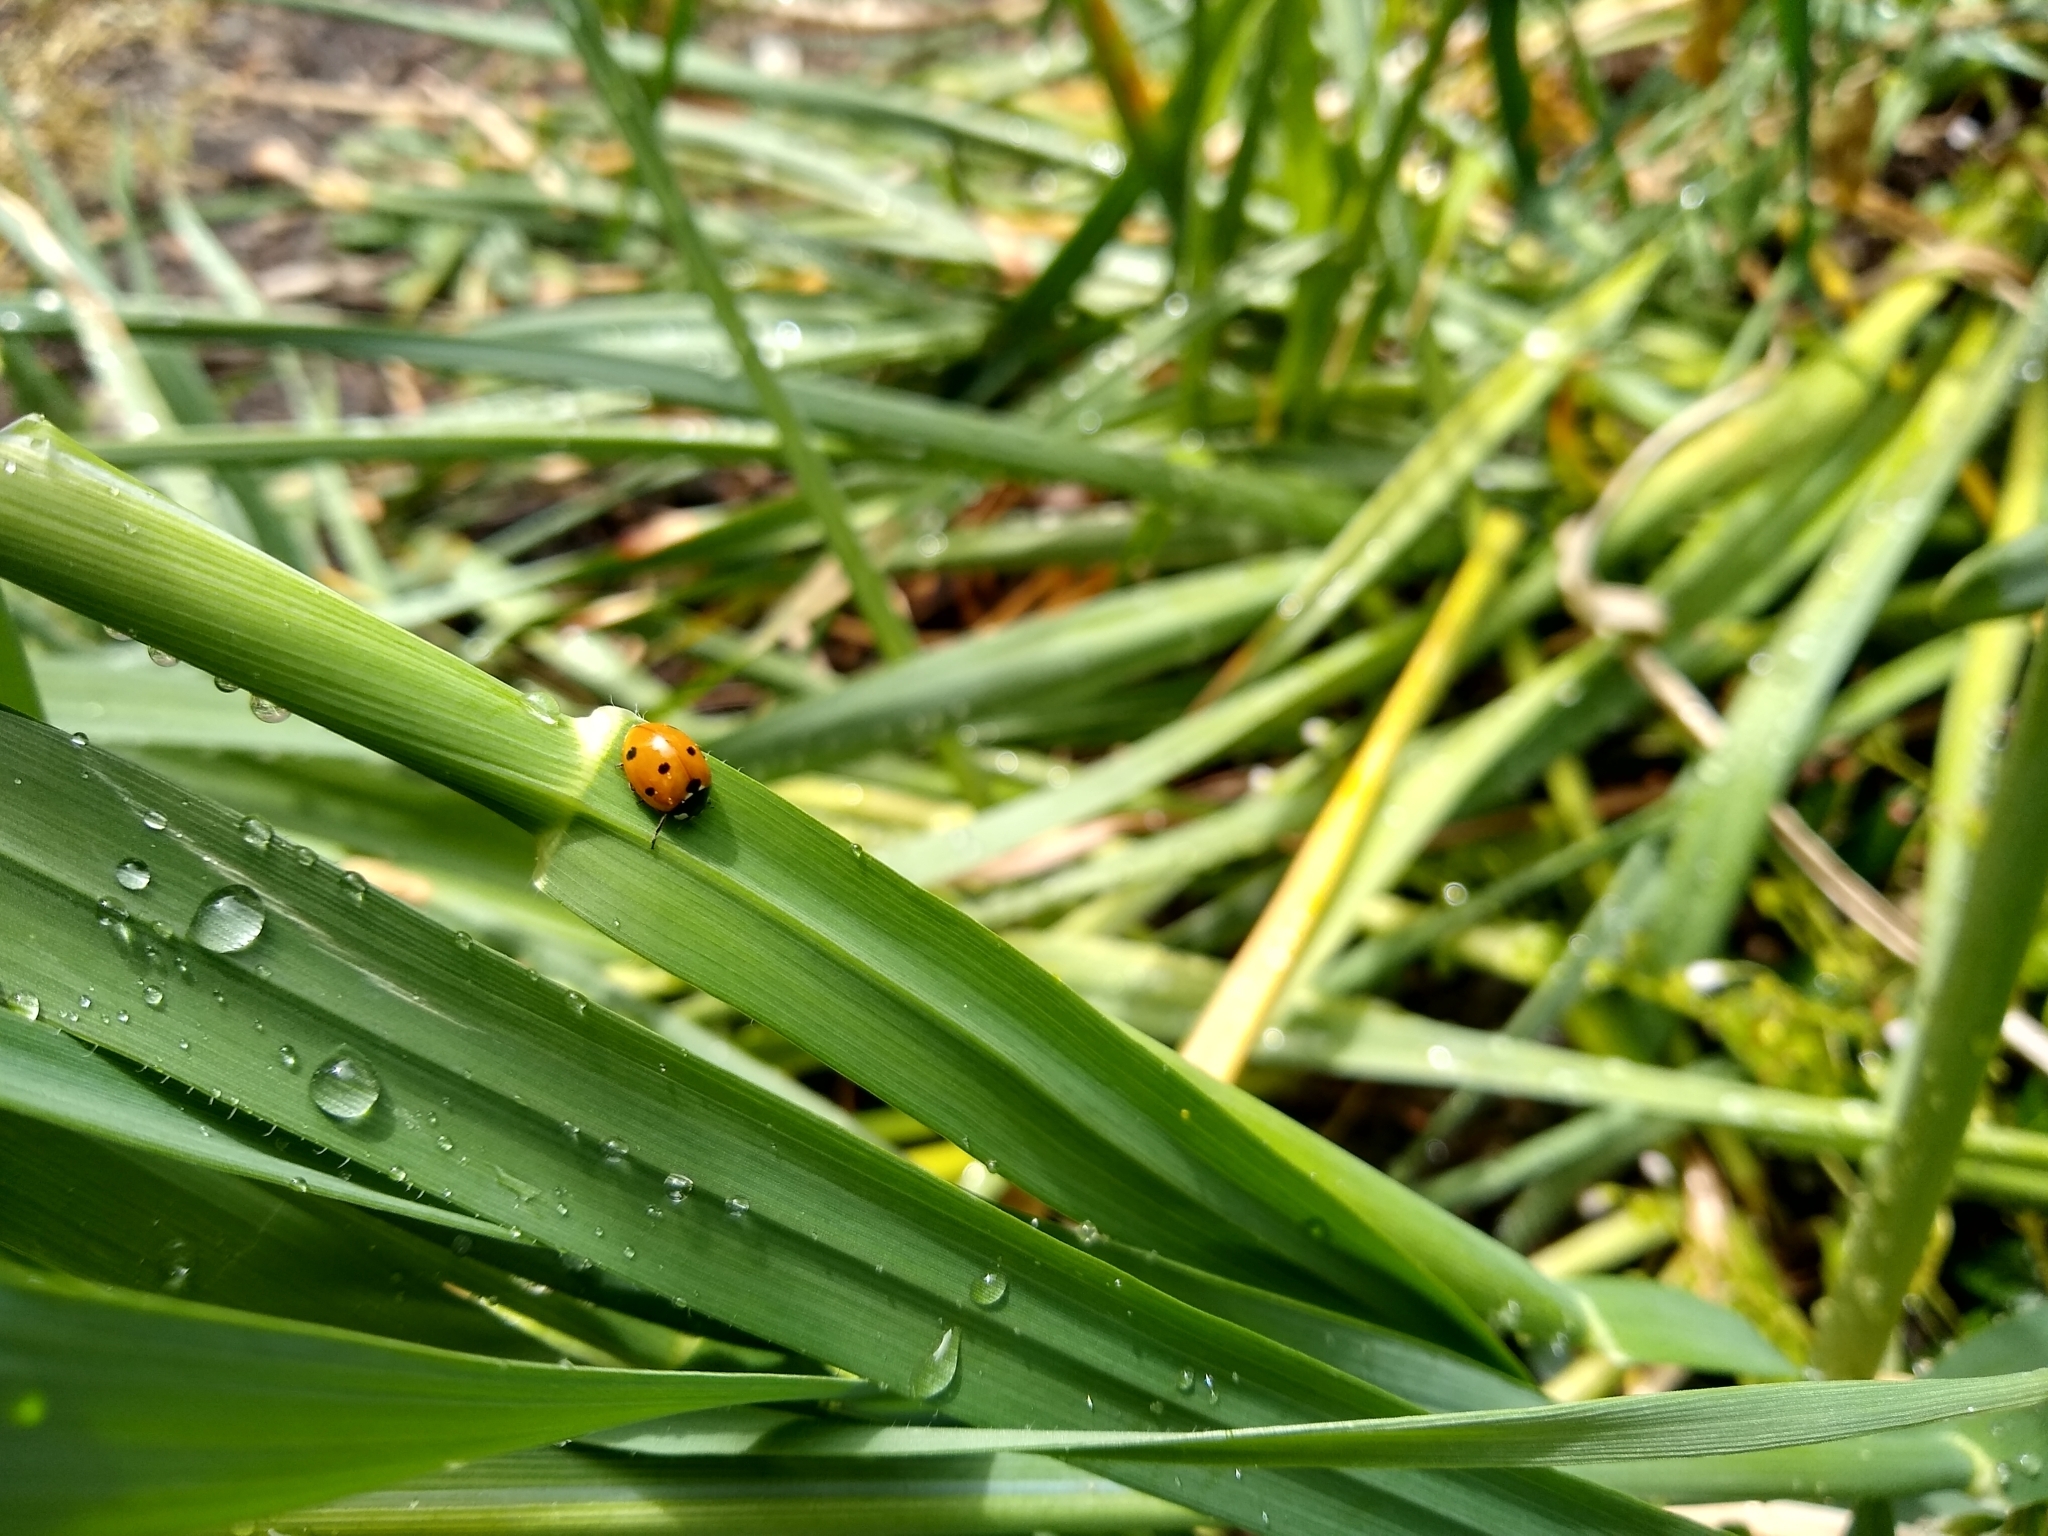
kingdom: Animalia
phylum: Arthropoda
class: Insecta
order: Coleoptera
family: Coccinellidae
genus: Coccinella
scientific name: Coccinella septempunctata
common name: Sevenspotted lady beetle
